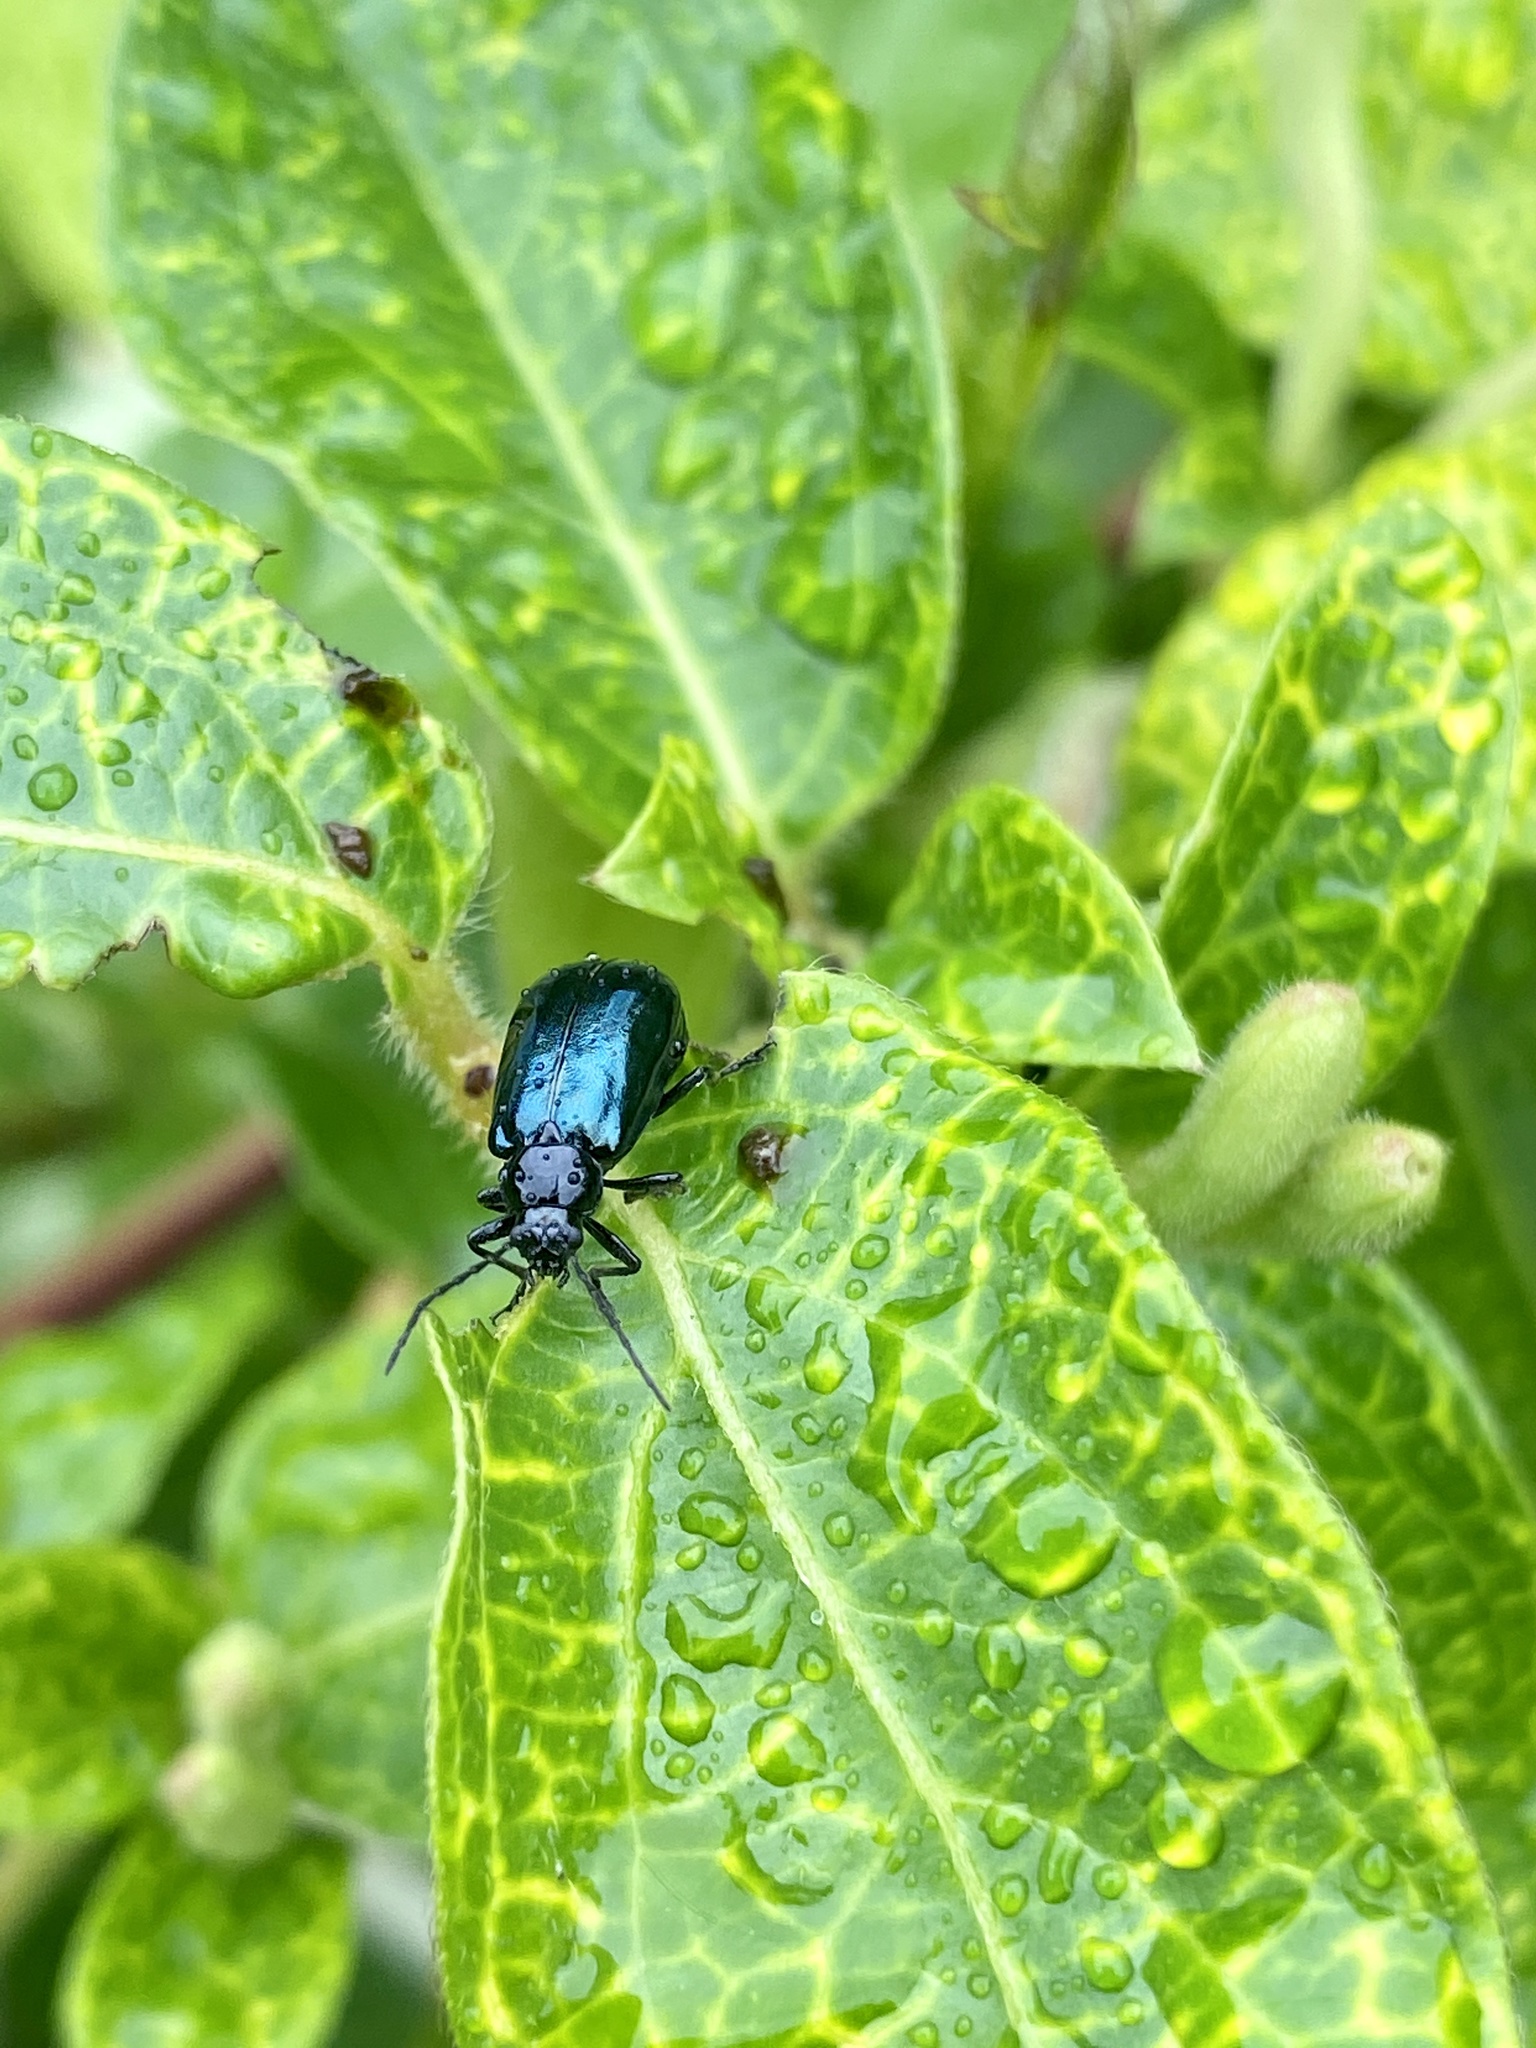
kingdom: Animalia
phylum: Arthropoda
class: Insecta
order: Coleoptera
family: Chrysomelidae
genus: Fleutiauxia
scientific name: Fleutiauxia armata
